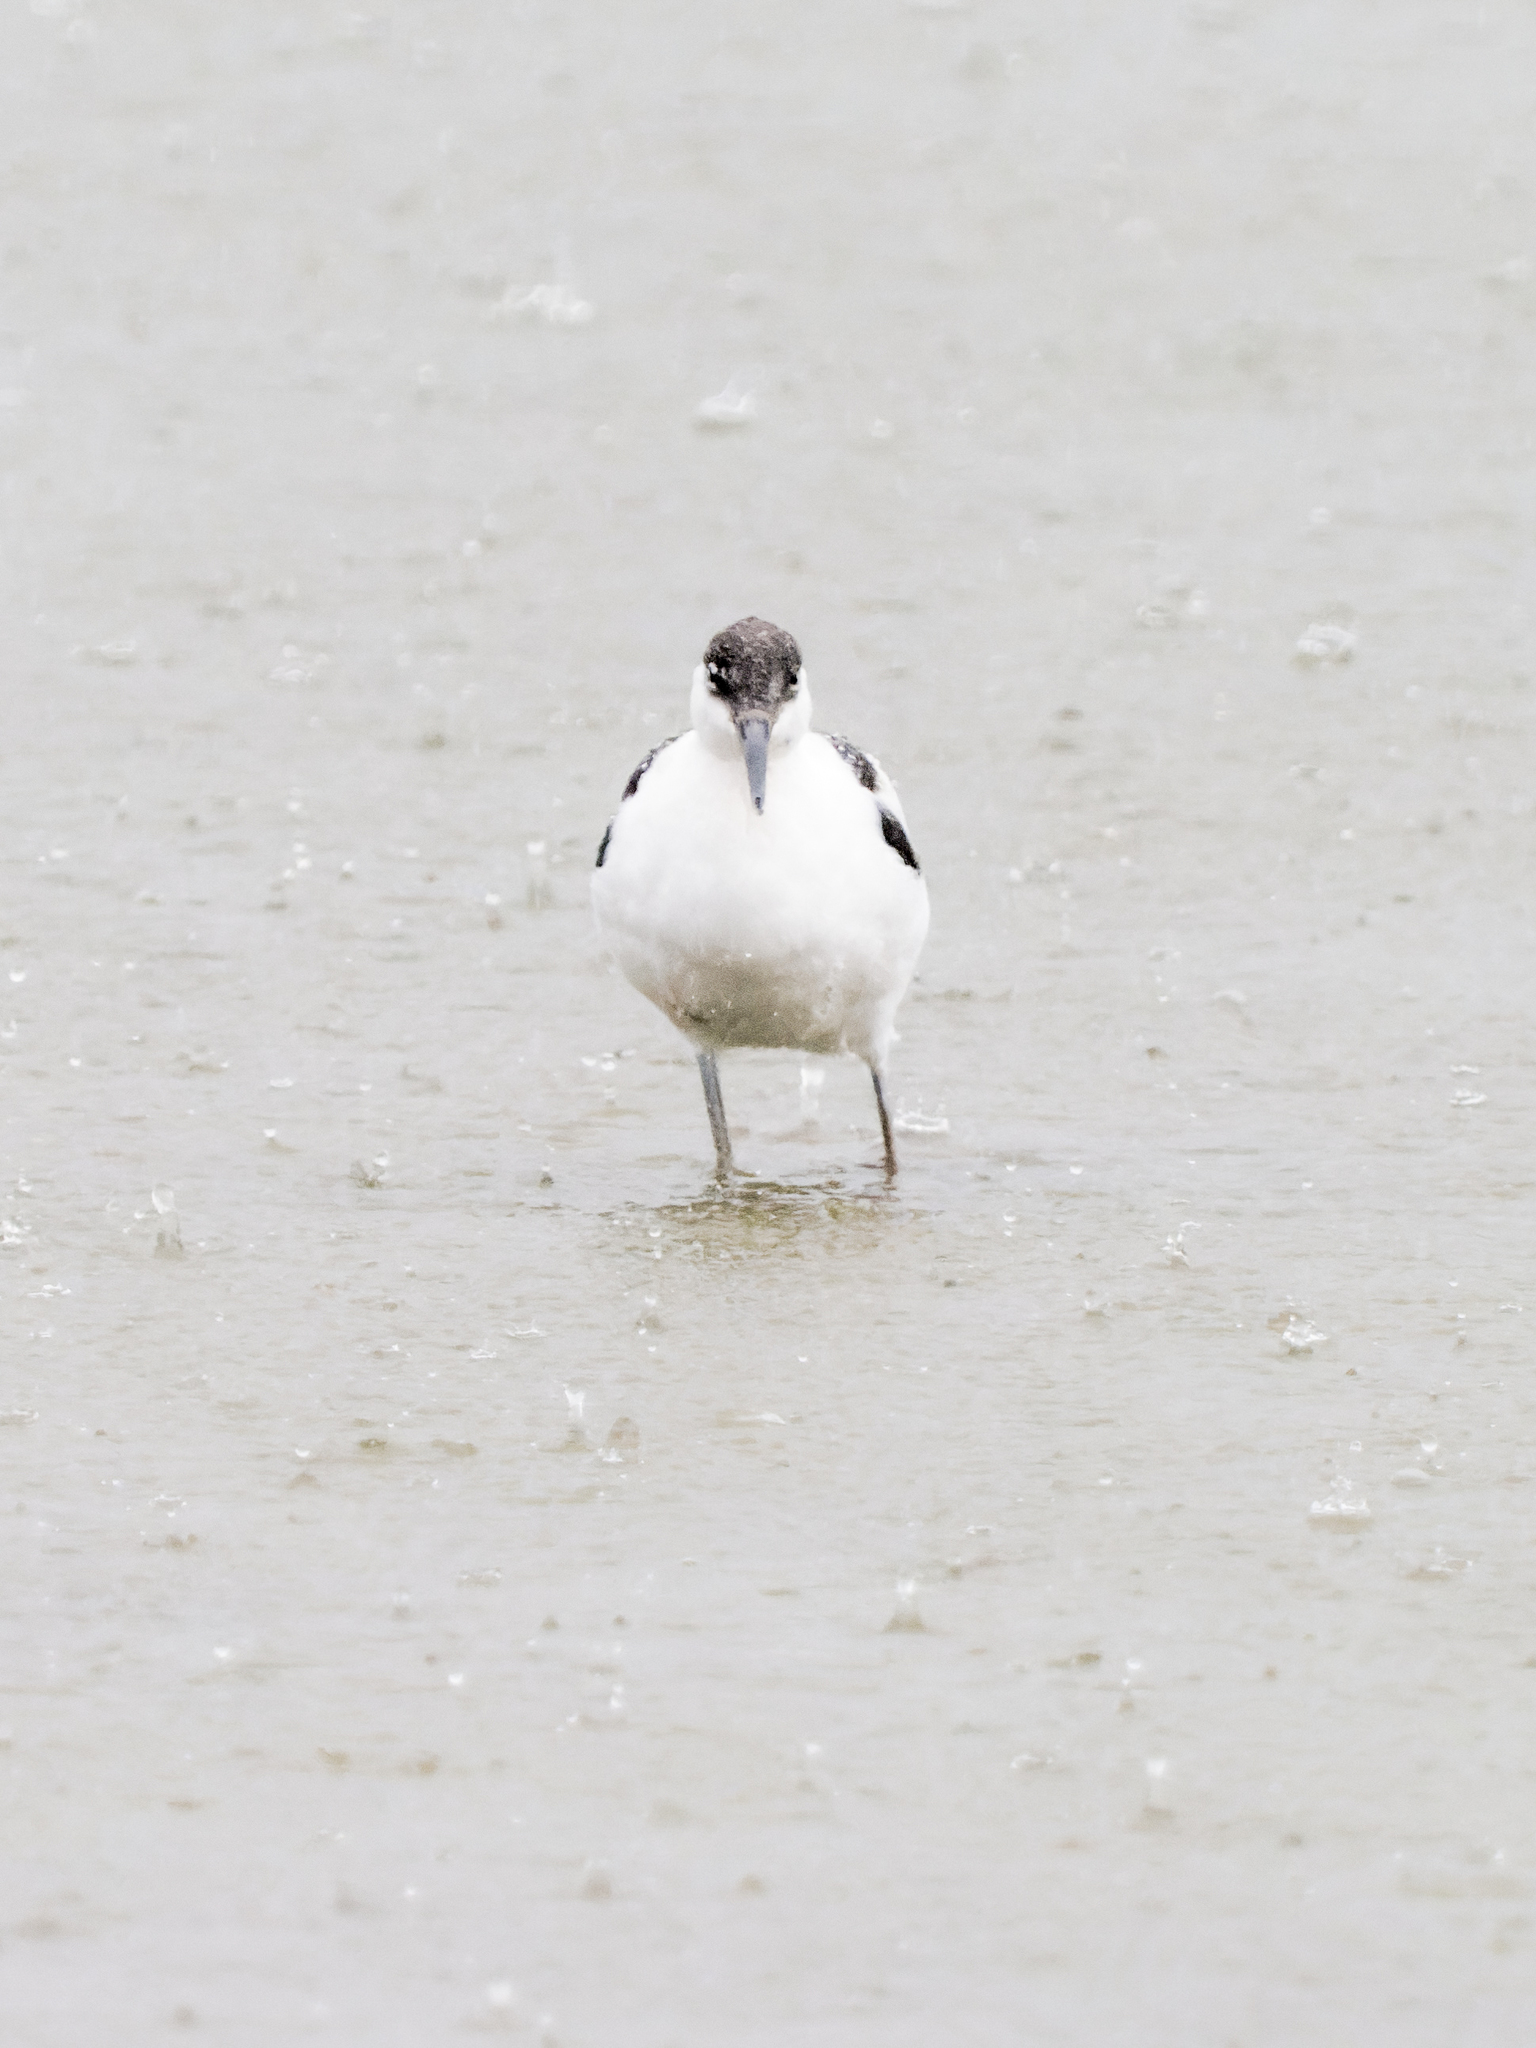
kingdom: Animalia
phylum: Chordata
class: Aves
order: Charadriiformes
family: Recurvirostridae
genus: Recurvirostra
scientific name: Recurvirostra avosetta
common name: Pied avocet
